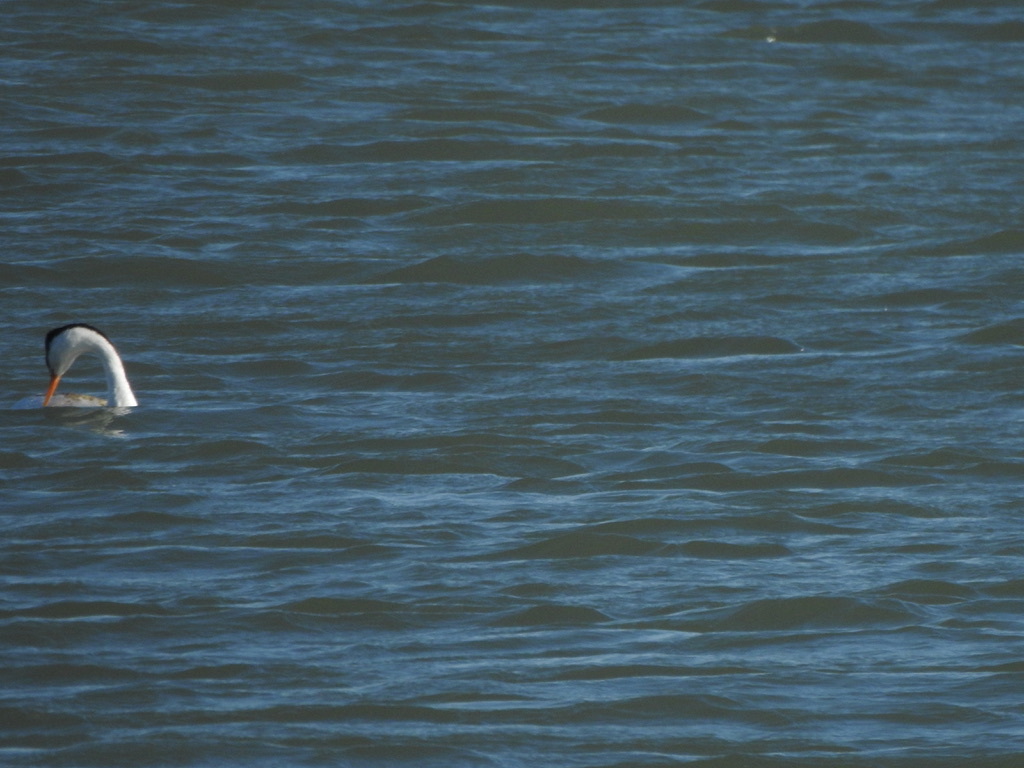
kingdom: Animalia
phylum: Chordata
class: Aves
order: Podicipediformes
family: Podicipedidae
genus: Aechmophorus
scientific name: Aechmophorus clarkii
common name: Clark's grebe
